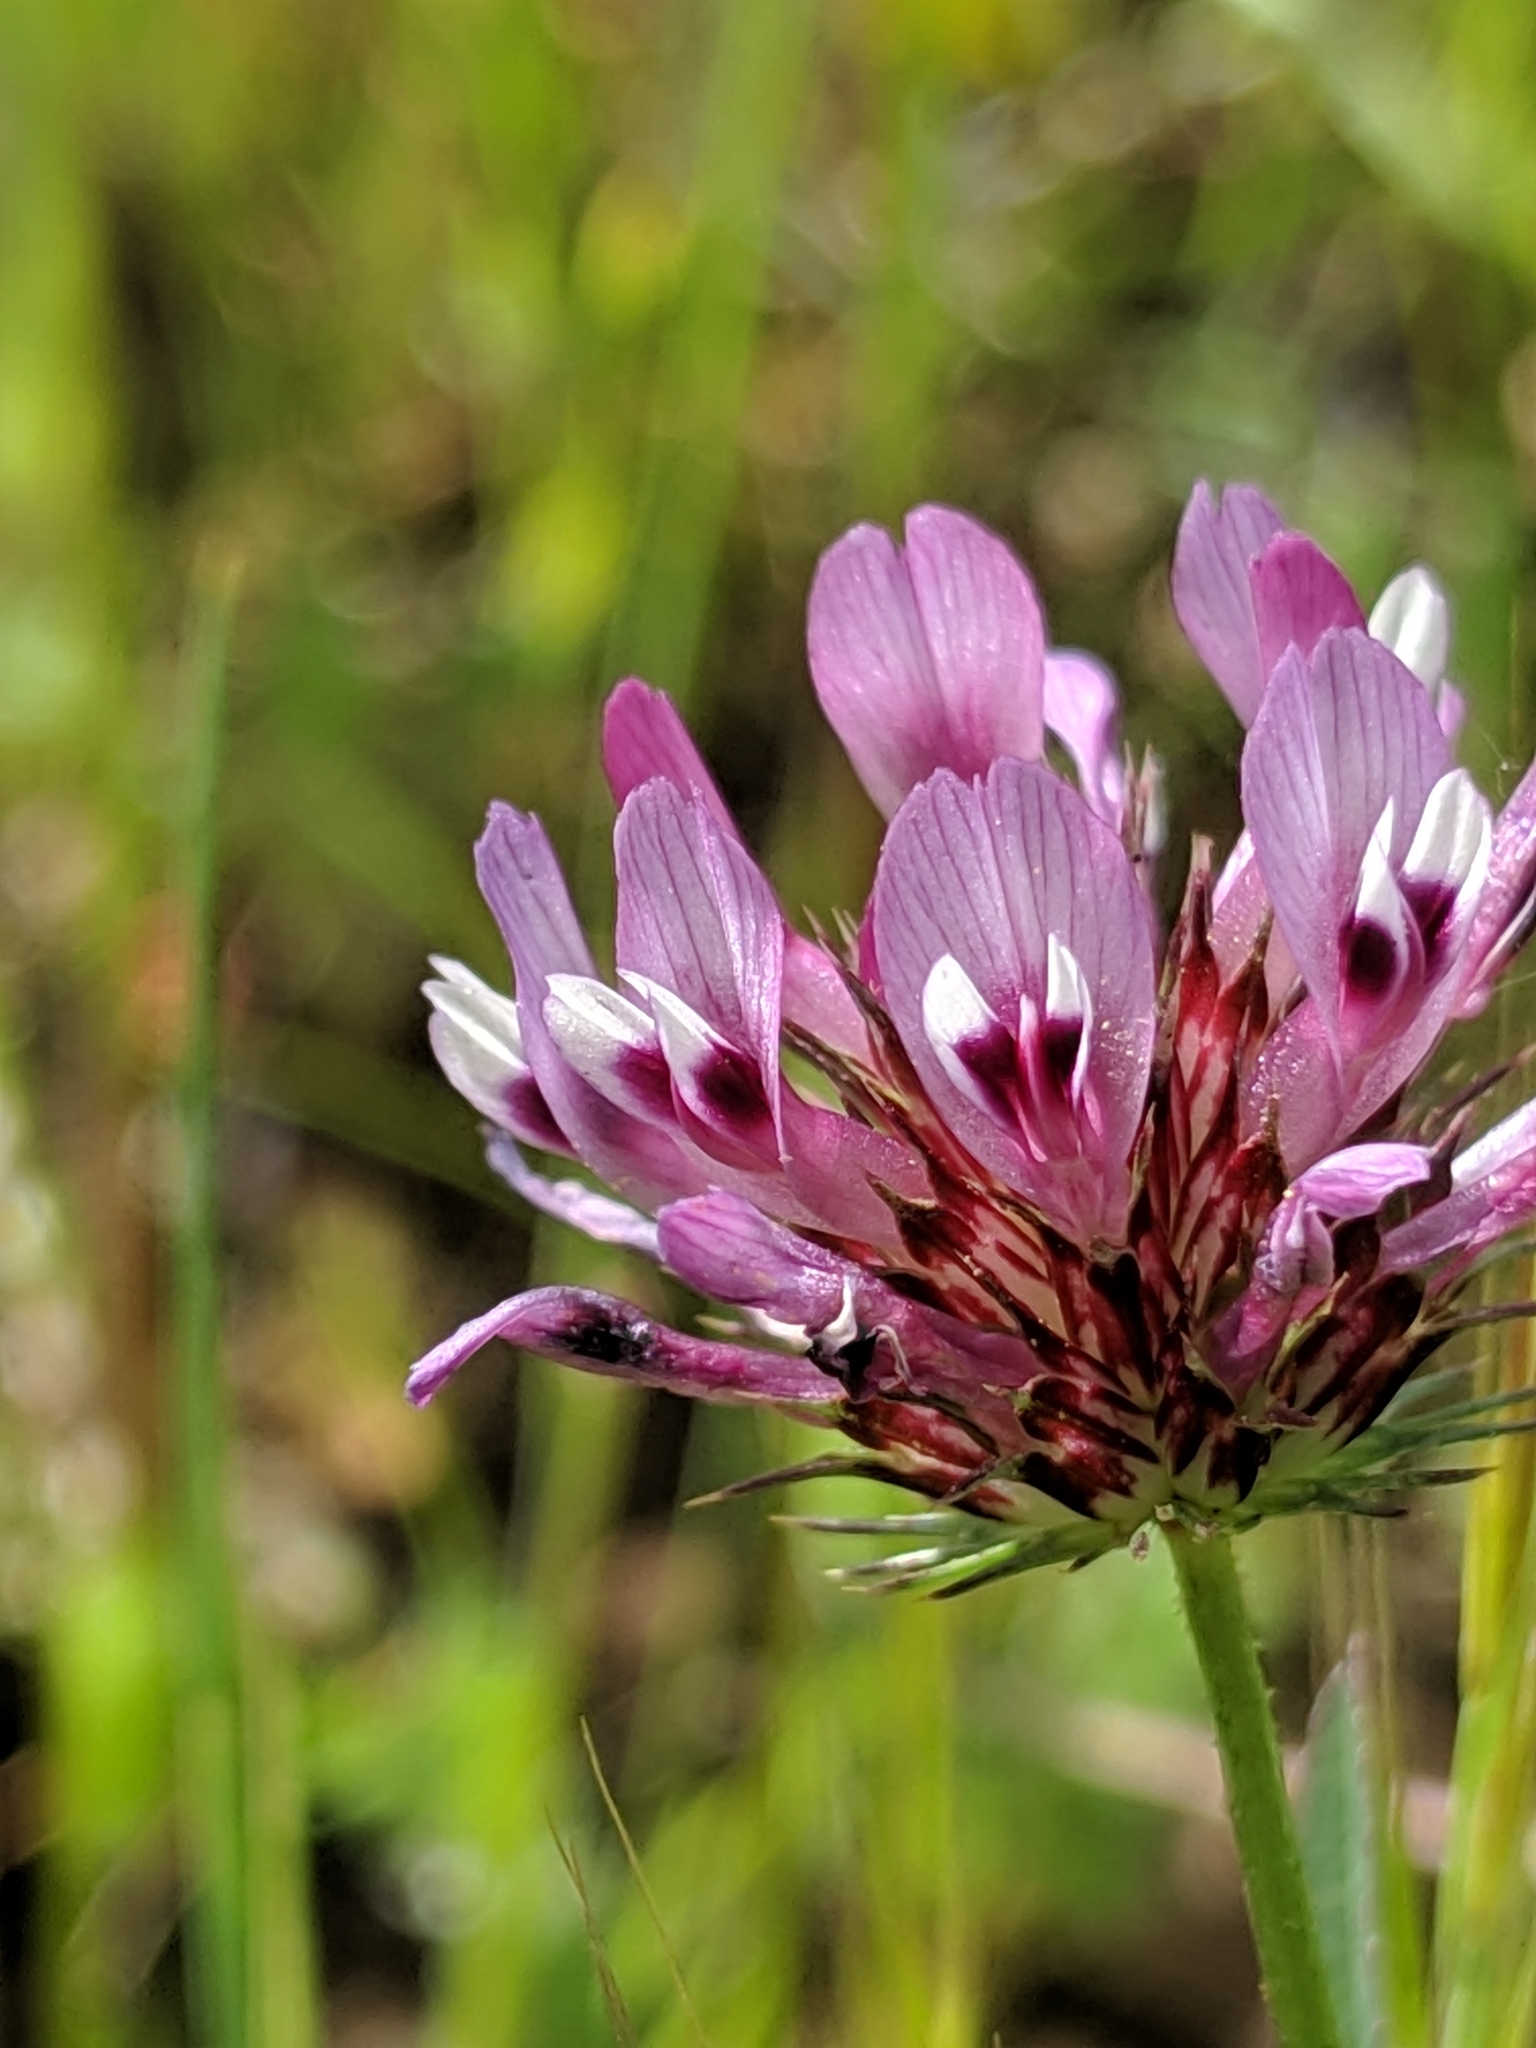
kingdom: Plantae
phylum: Tracheophyta
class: Magnoliopsida
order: Fabales
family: Fabaceae
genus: Trifolium
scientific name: Trifolium willdenovii
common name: Tomcat clover
